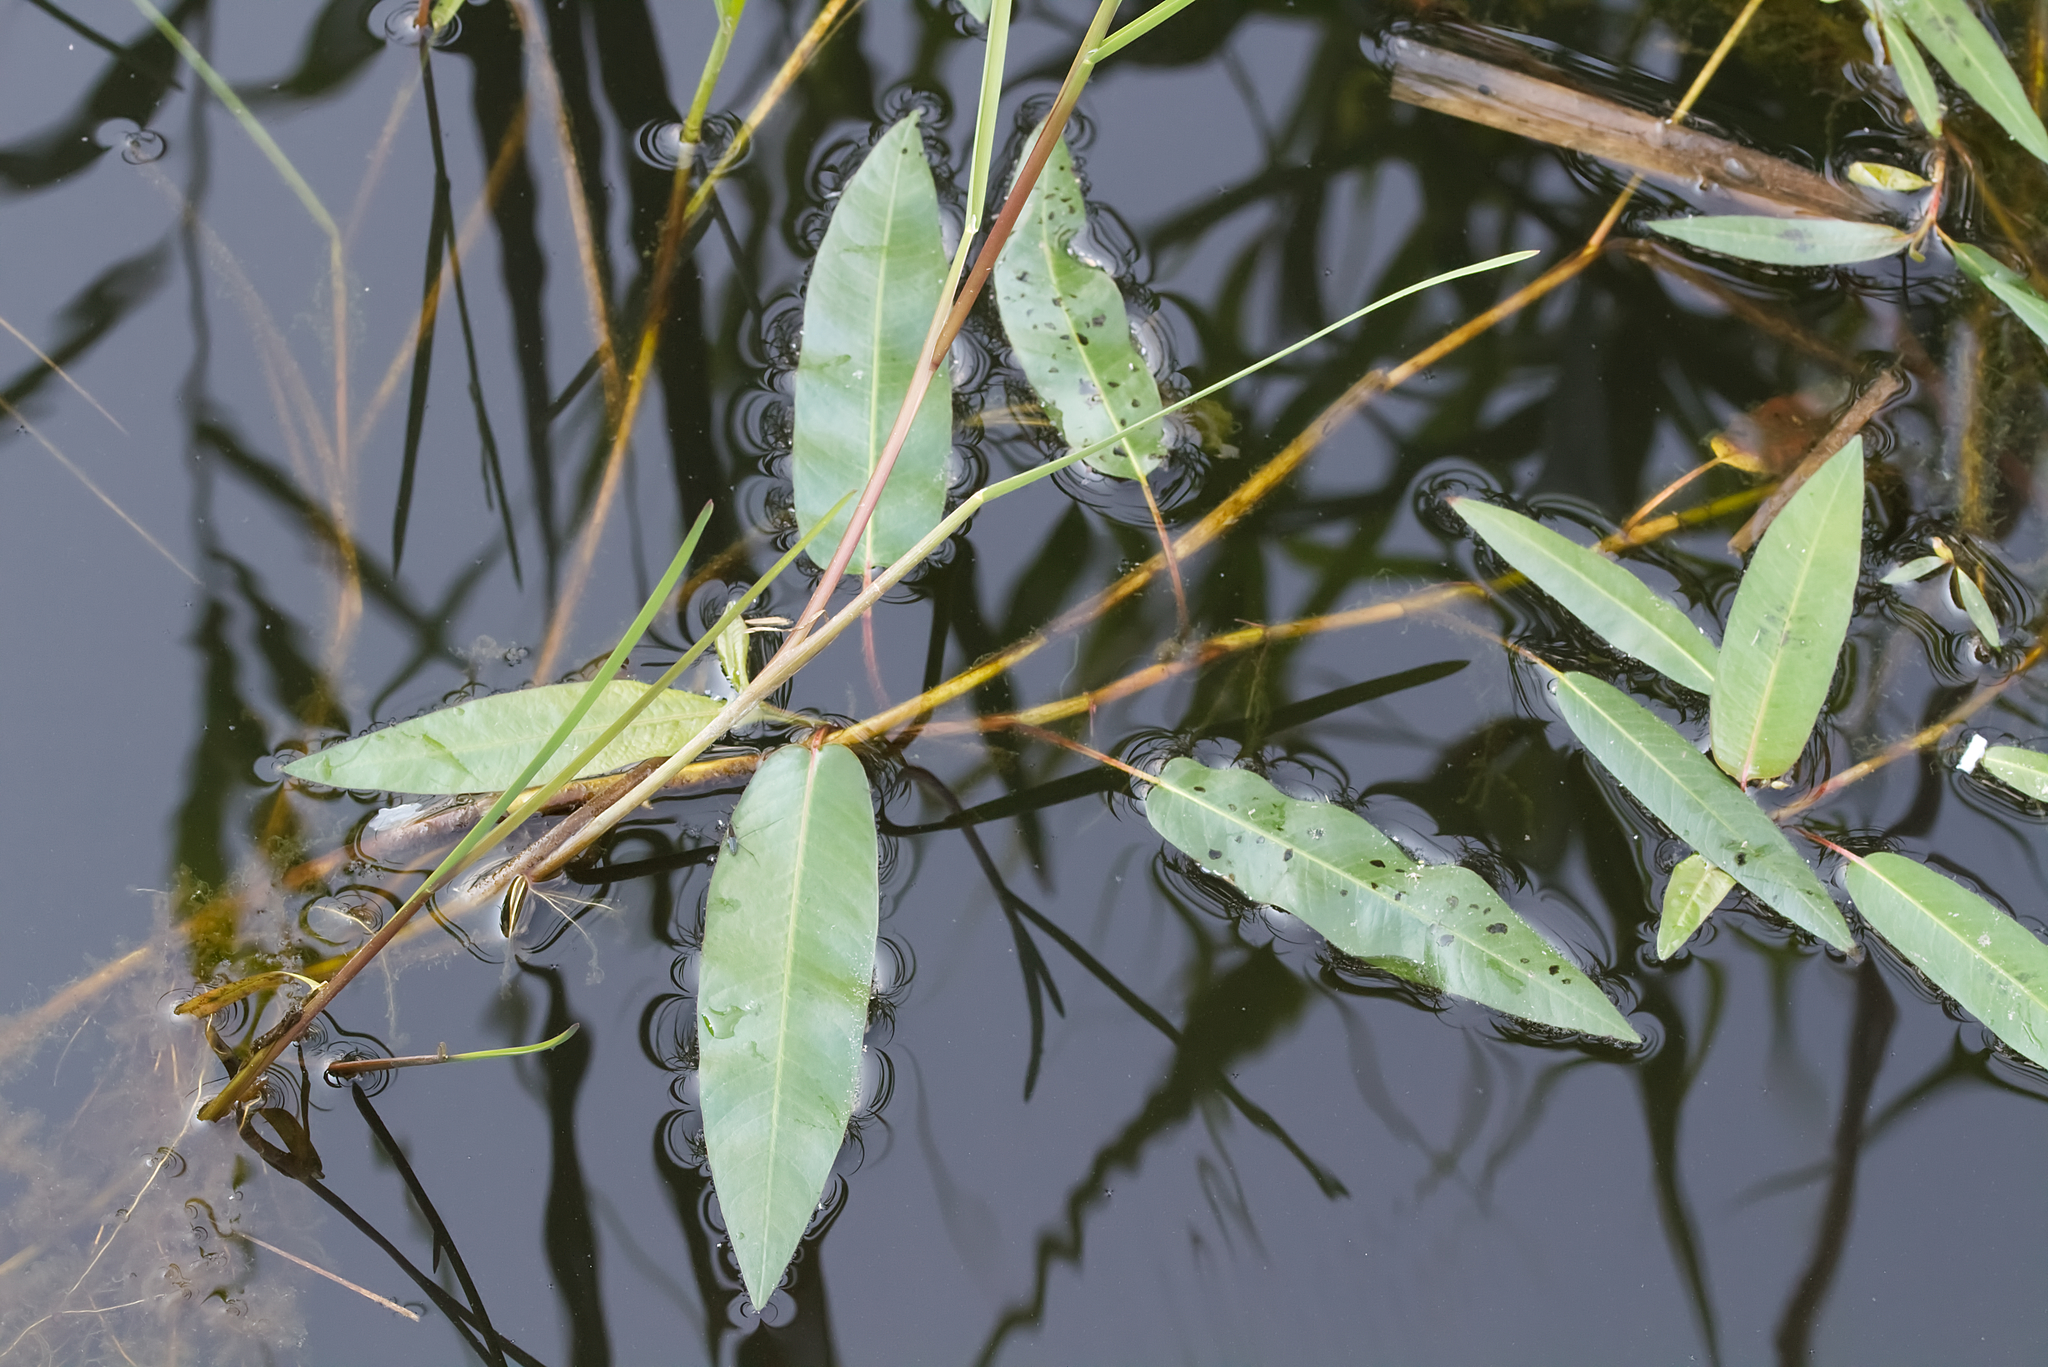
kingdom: Plantae
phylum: Tracheophyta
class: Magnoliopsida
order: Caryophyllales
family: Polygonaceae
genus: Persicaria
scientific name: Persicaria amphibia
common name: Amphibious bistort
